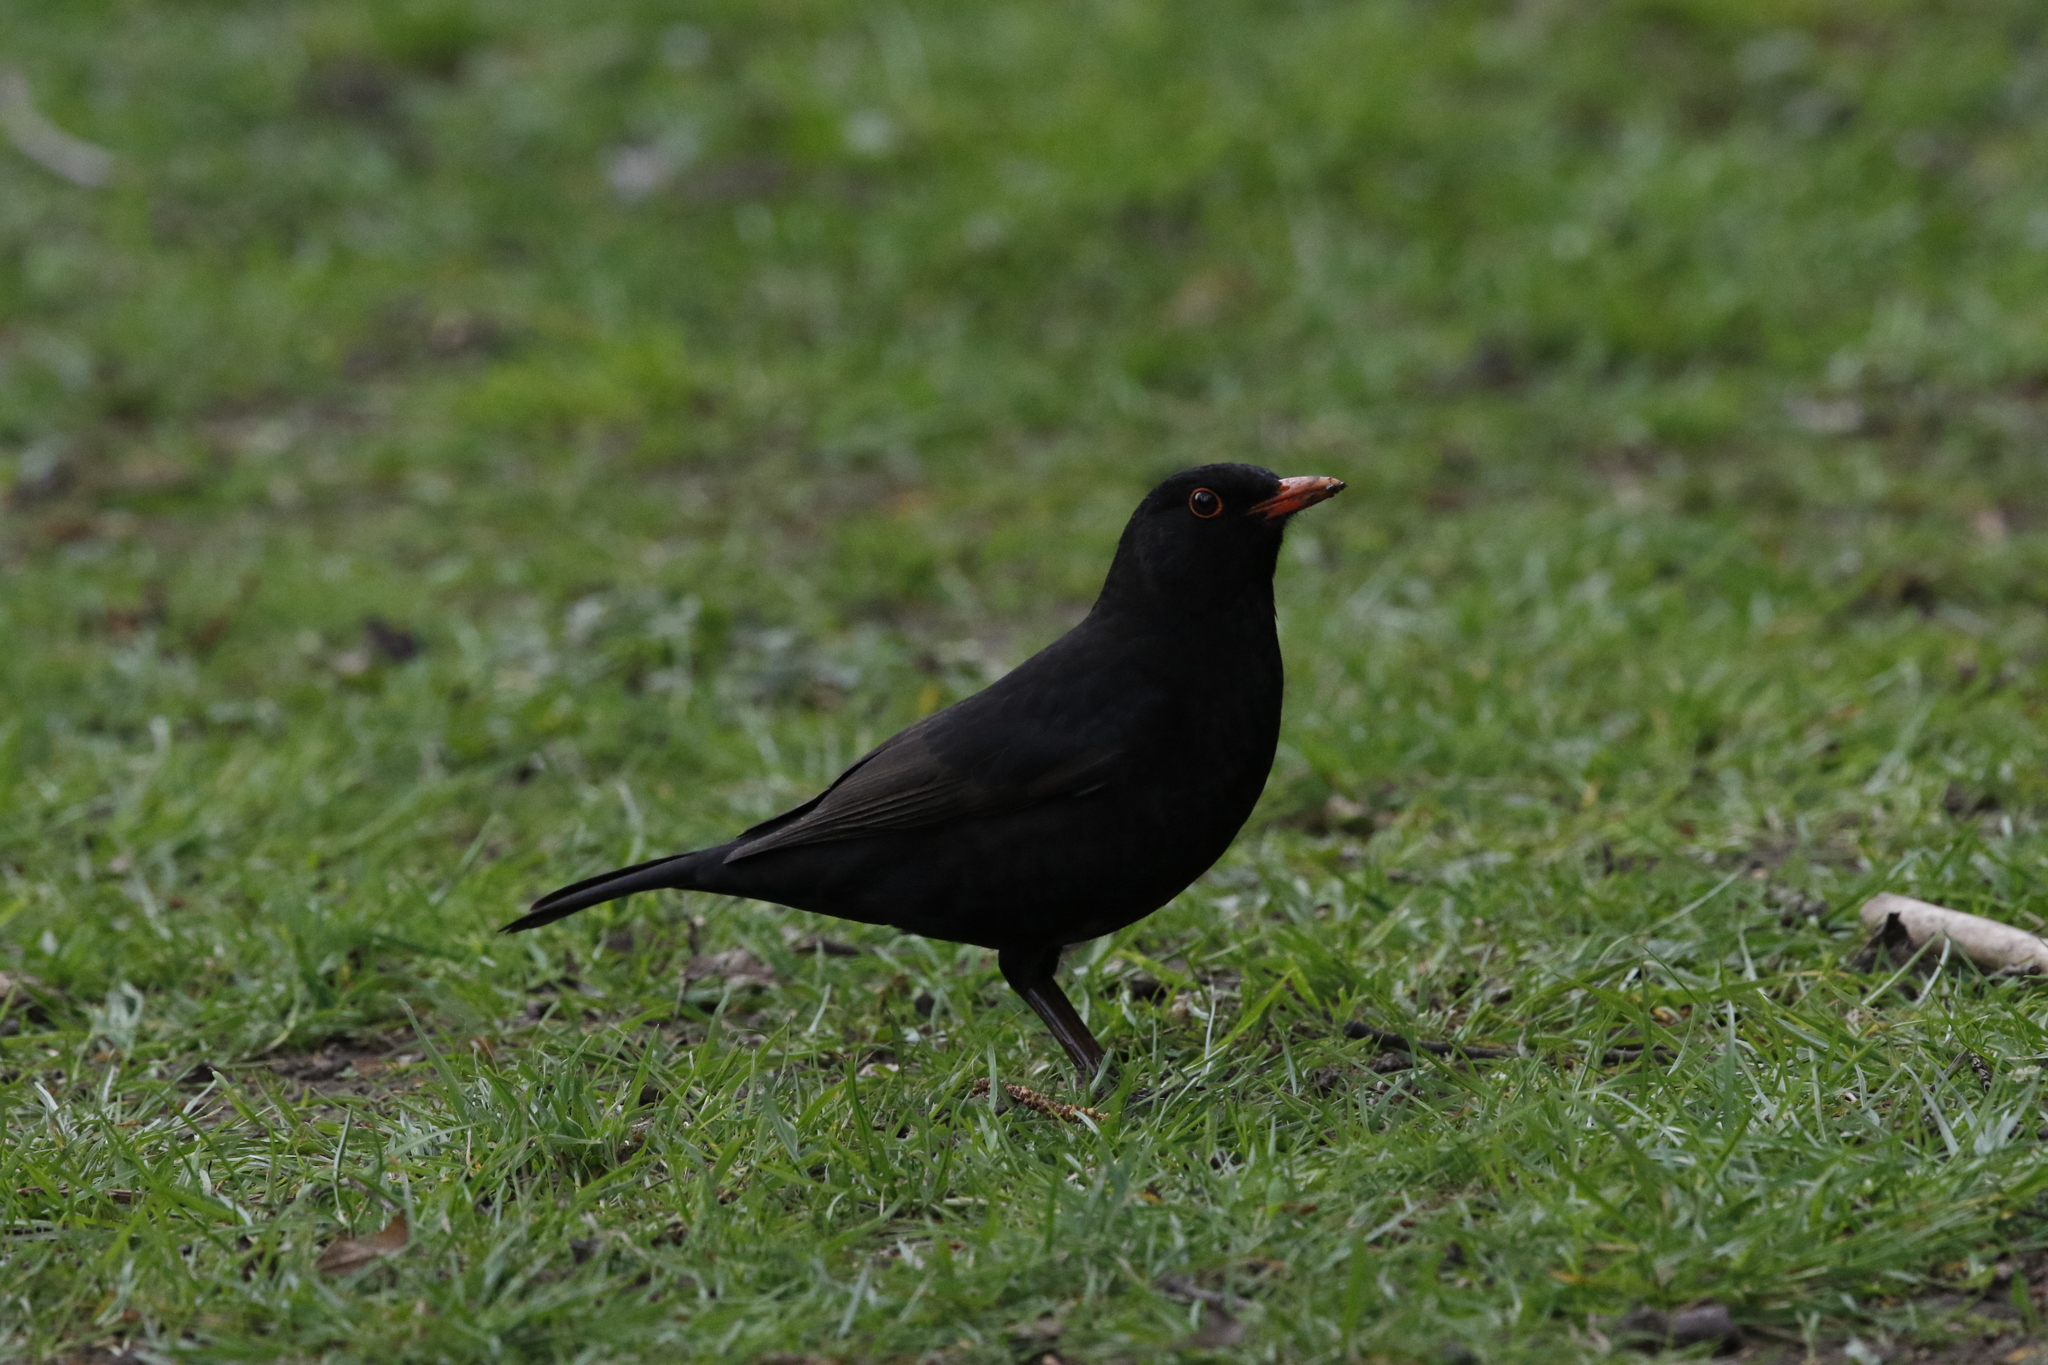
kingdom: Animalia
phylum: Chordata
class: Aves
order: Passeriformes
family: Turdidae
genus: Turdus
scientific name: Turdus merula
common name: Common blackbird
